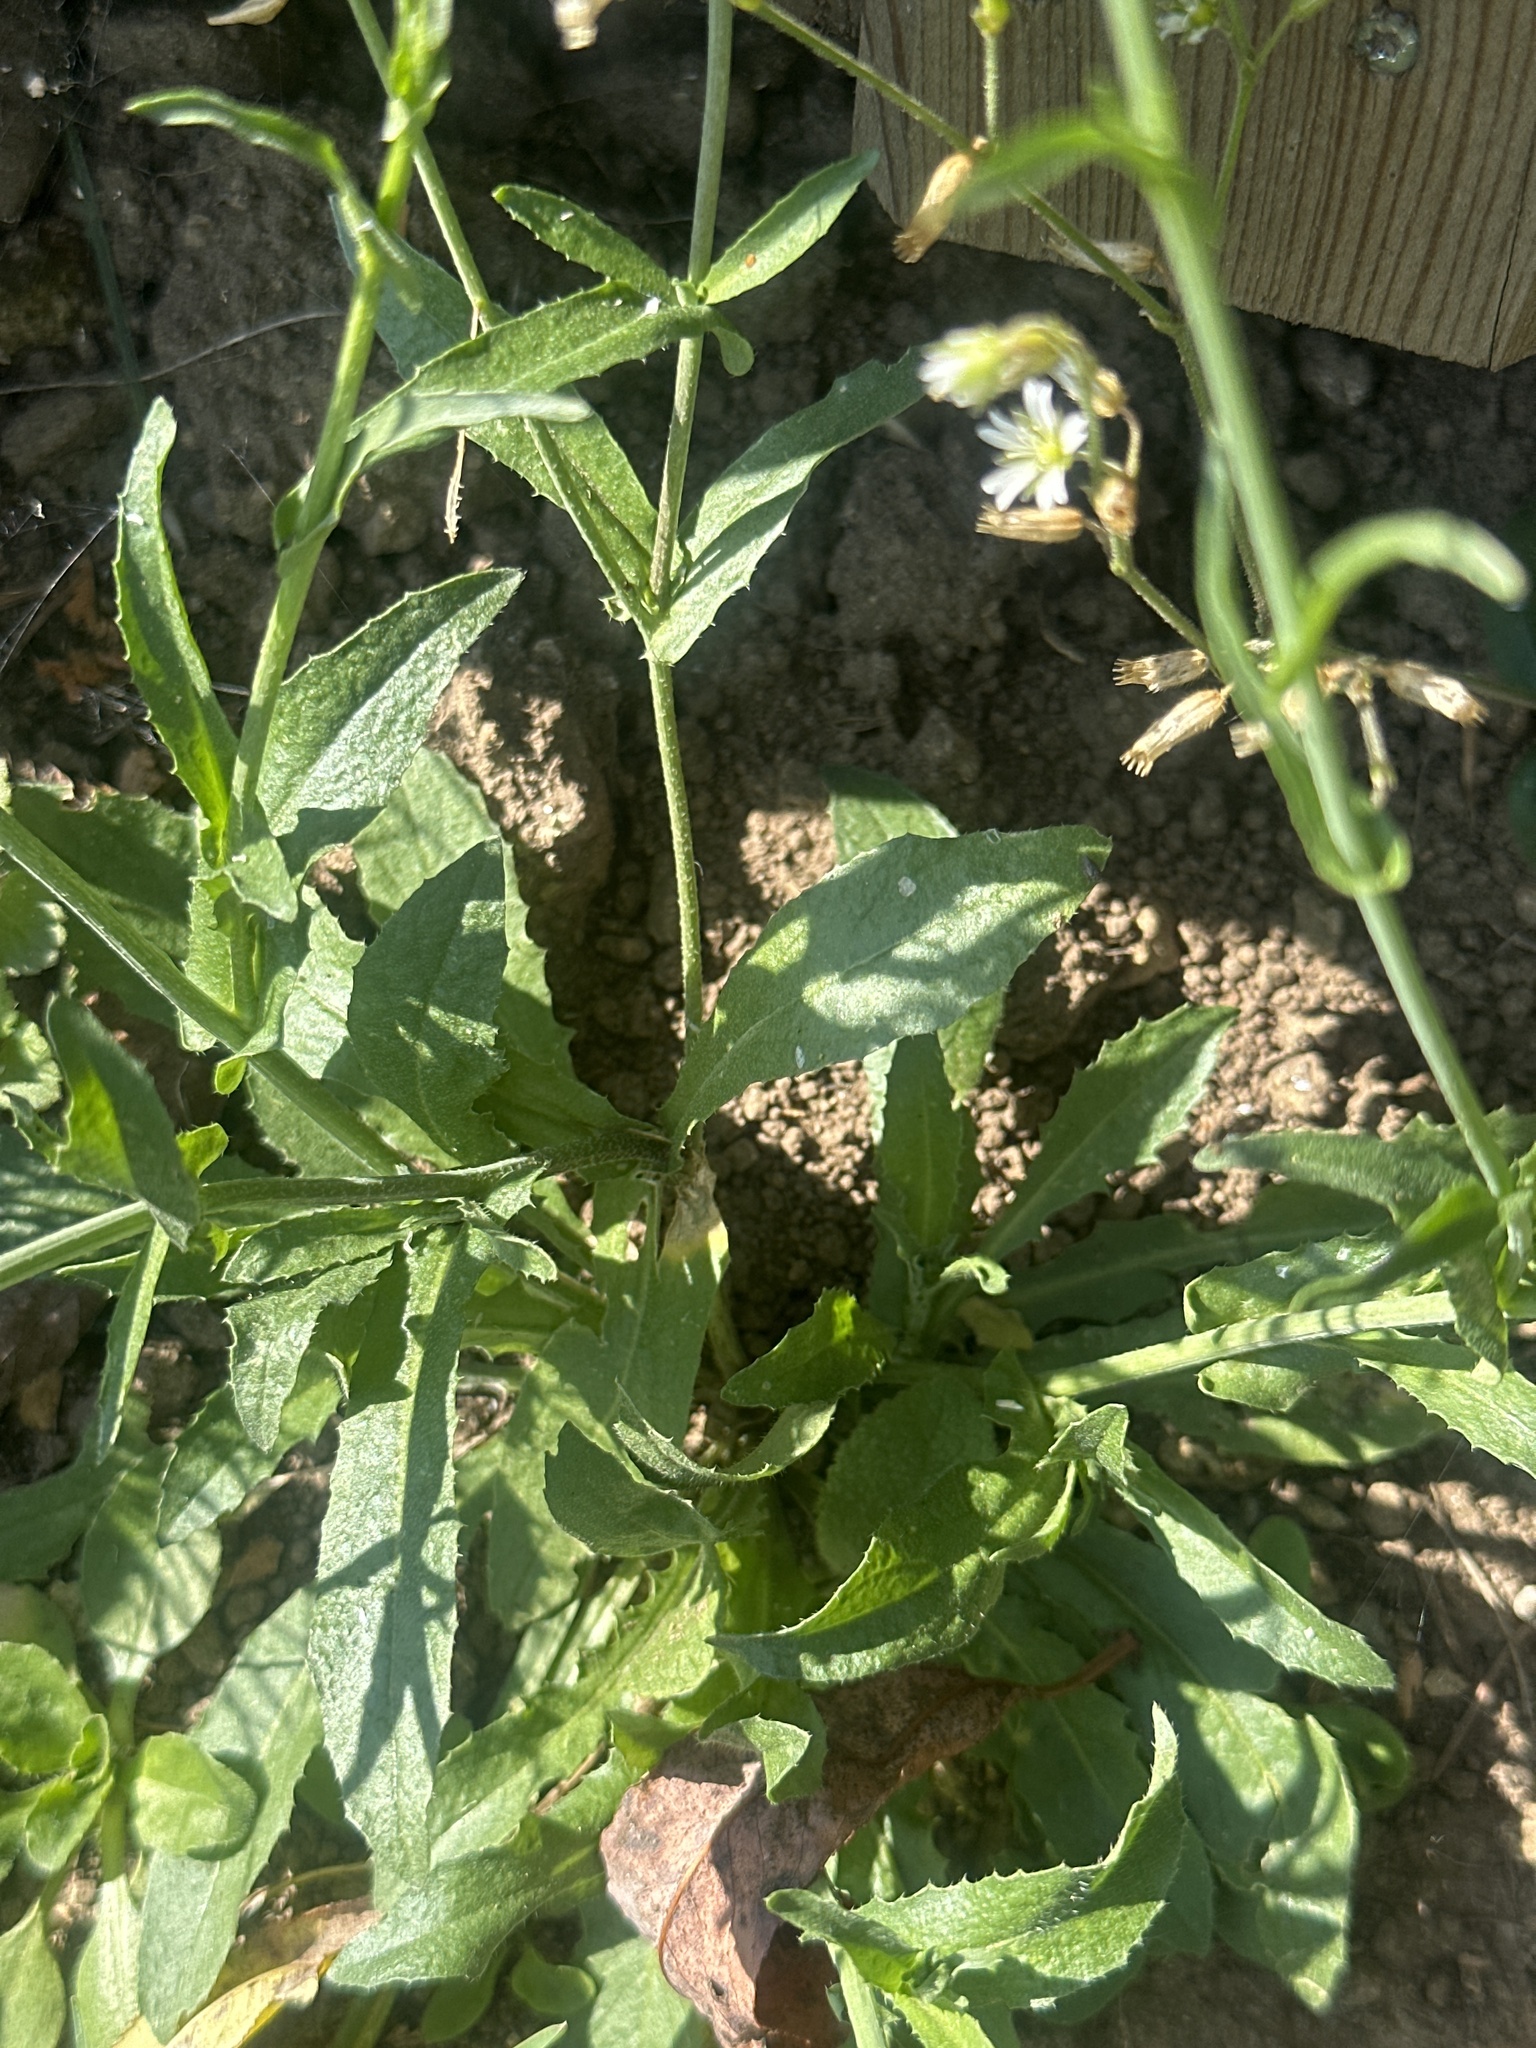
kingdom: Plantae
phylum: Tracheophyta
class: Magnoliopsida
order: Brassicales
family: Brassicaceae
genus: Capsella
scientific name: Capsella bursa-pastoris
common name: Shepherd's purse
